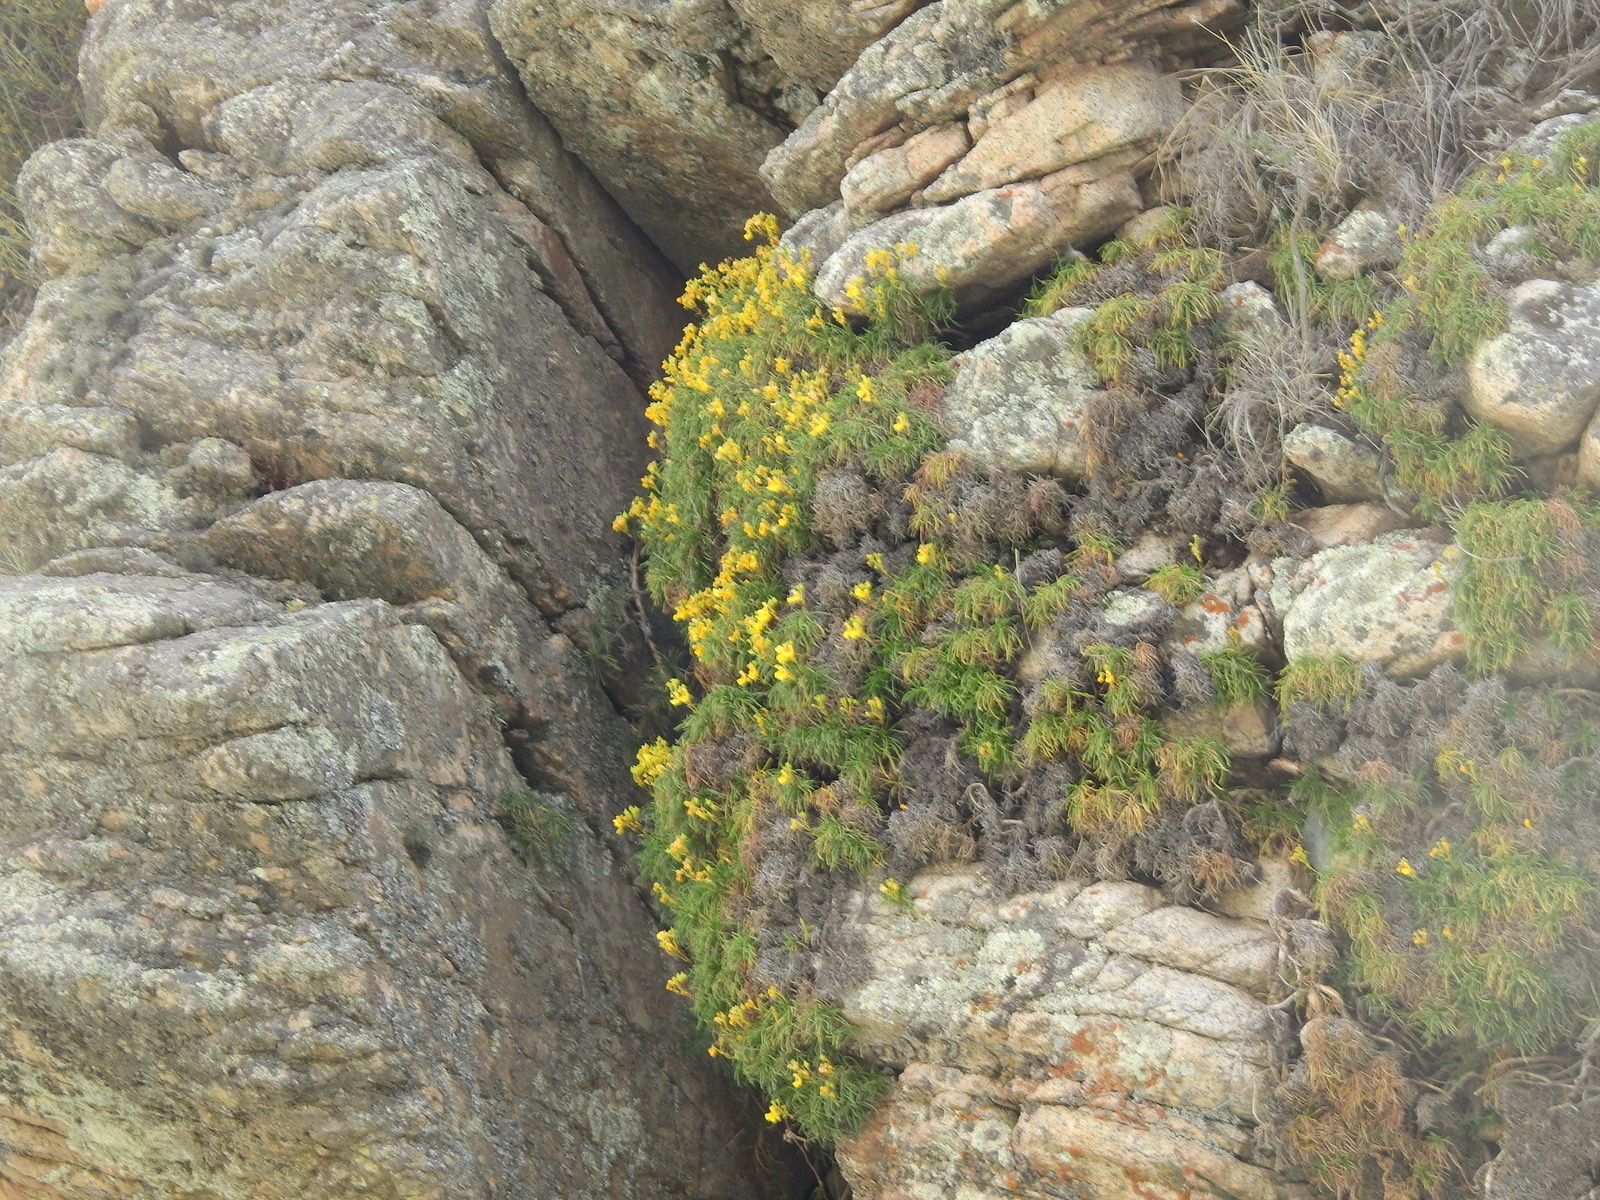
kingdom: Plantae
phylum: Tracheophyta
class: Magnoliopsida
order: Lamiales
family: Calceolariaceae
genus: Calceolaria
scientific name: Calceolaria pinifolia
